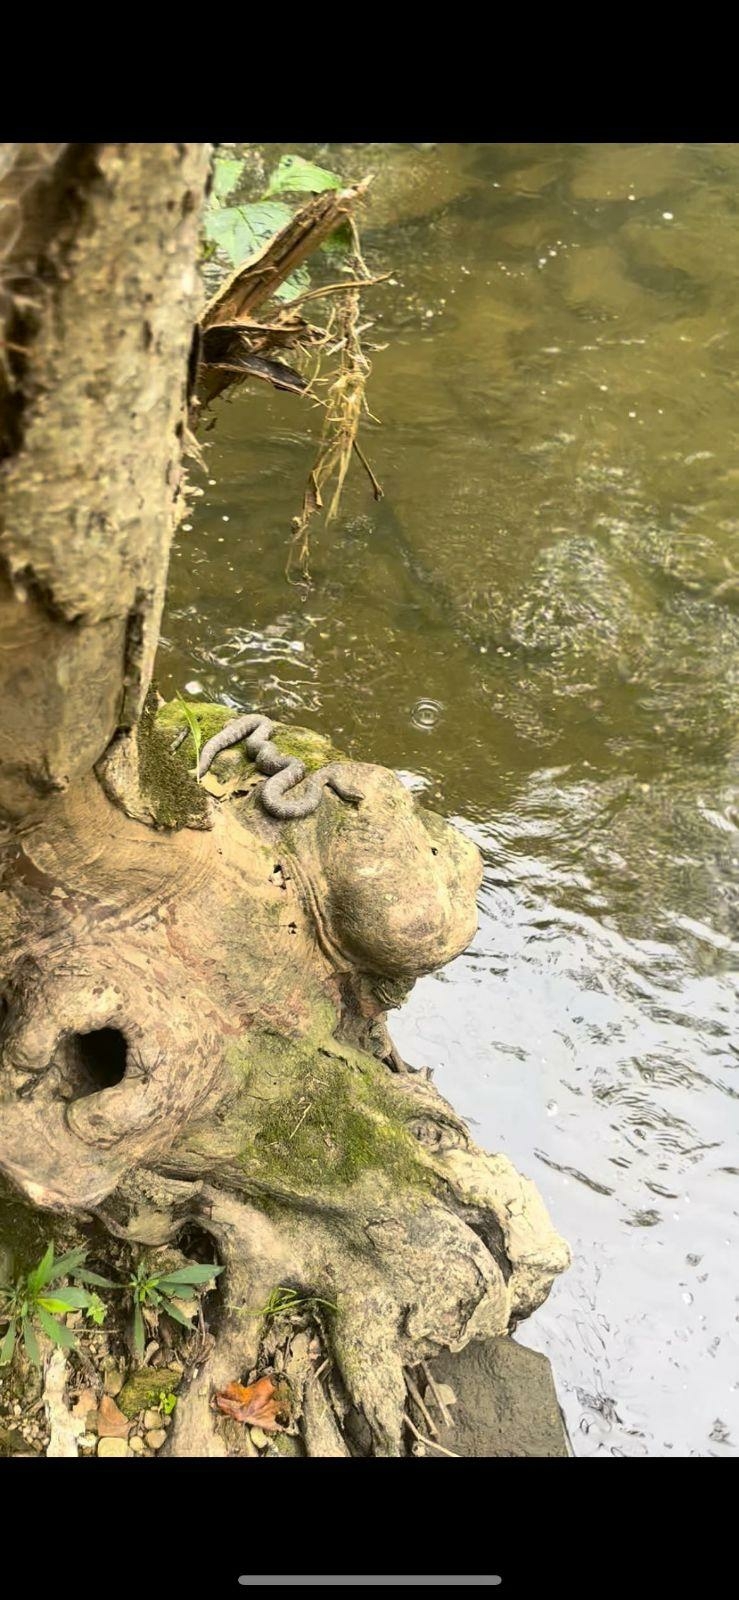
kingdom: Animalia
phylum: Chordata
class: Squamata
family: Colubridae
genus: Nerodia
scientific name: Nerodia sipedon
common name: Northern water snake
